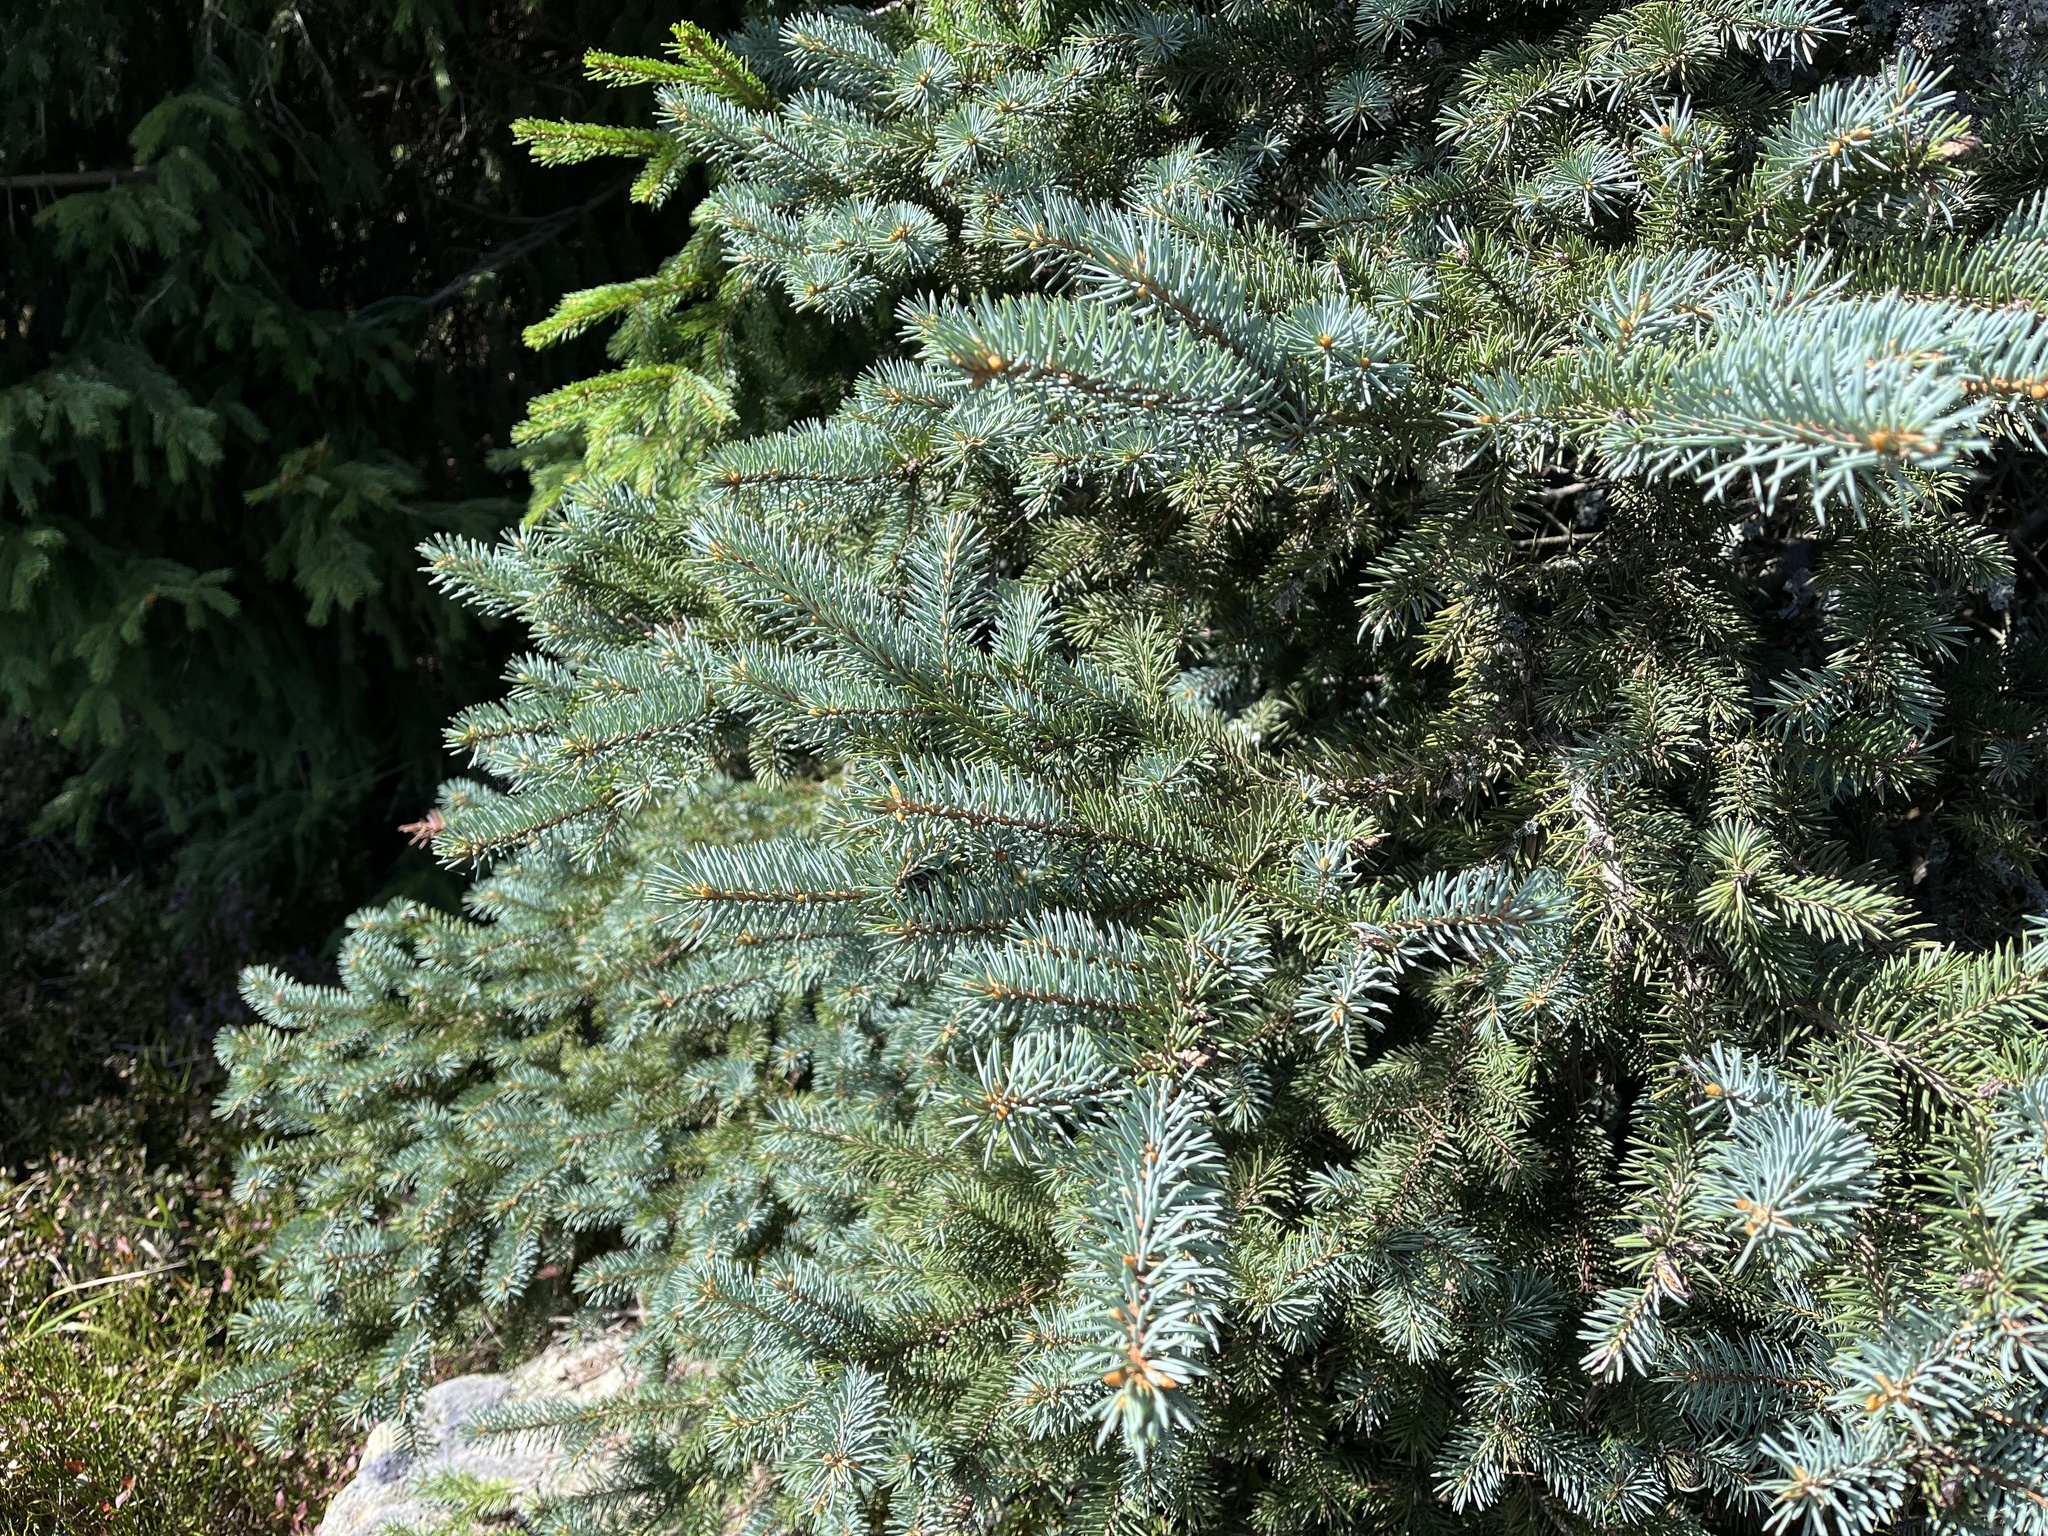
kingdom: Plantae
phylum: Tracheophyta
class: Pinopsida
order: Pinales
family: Pinaceae
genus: Picea
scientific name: Picea pungens
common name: Colorado spruce
